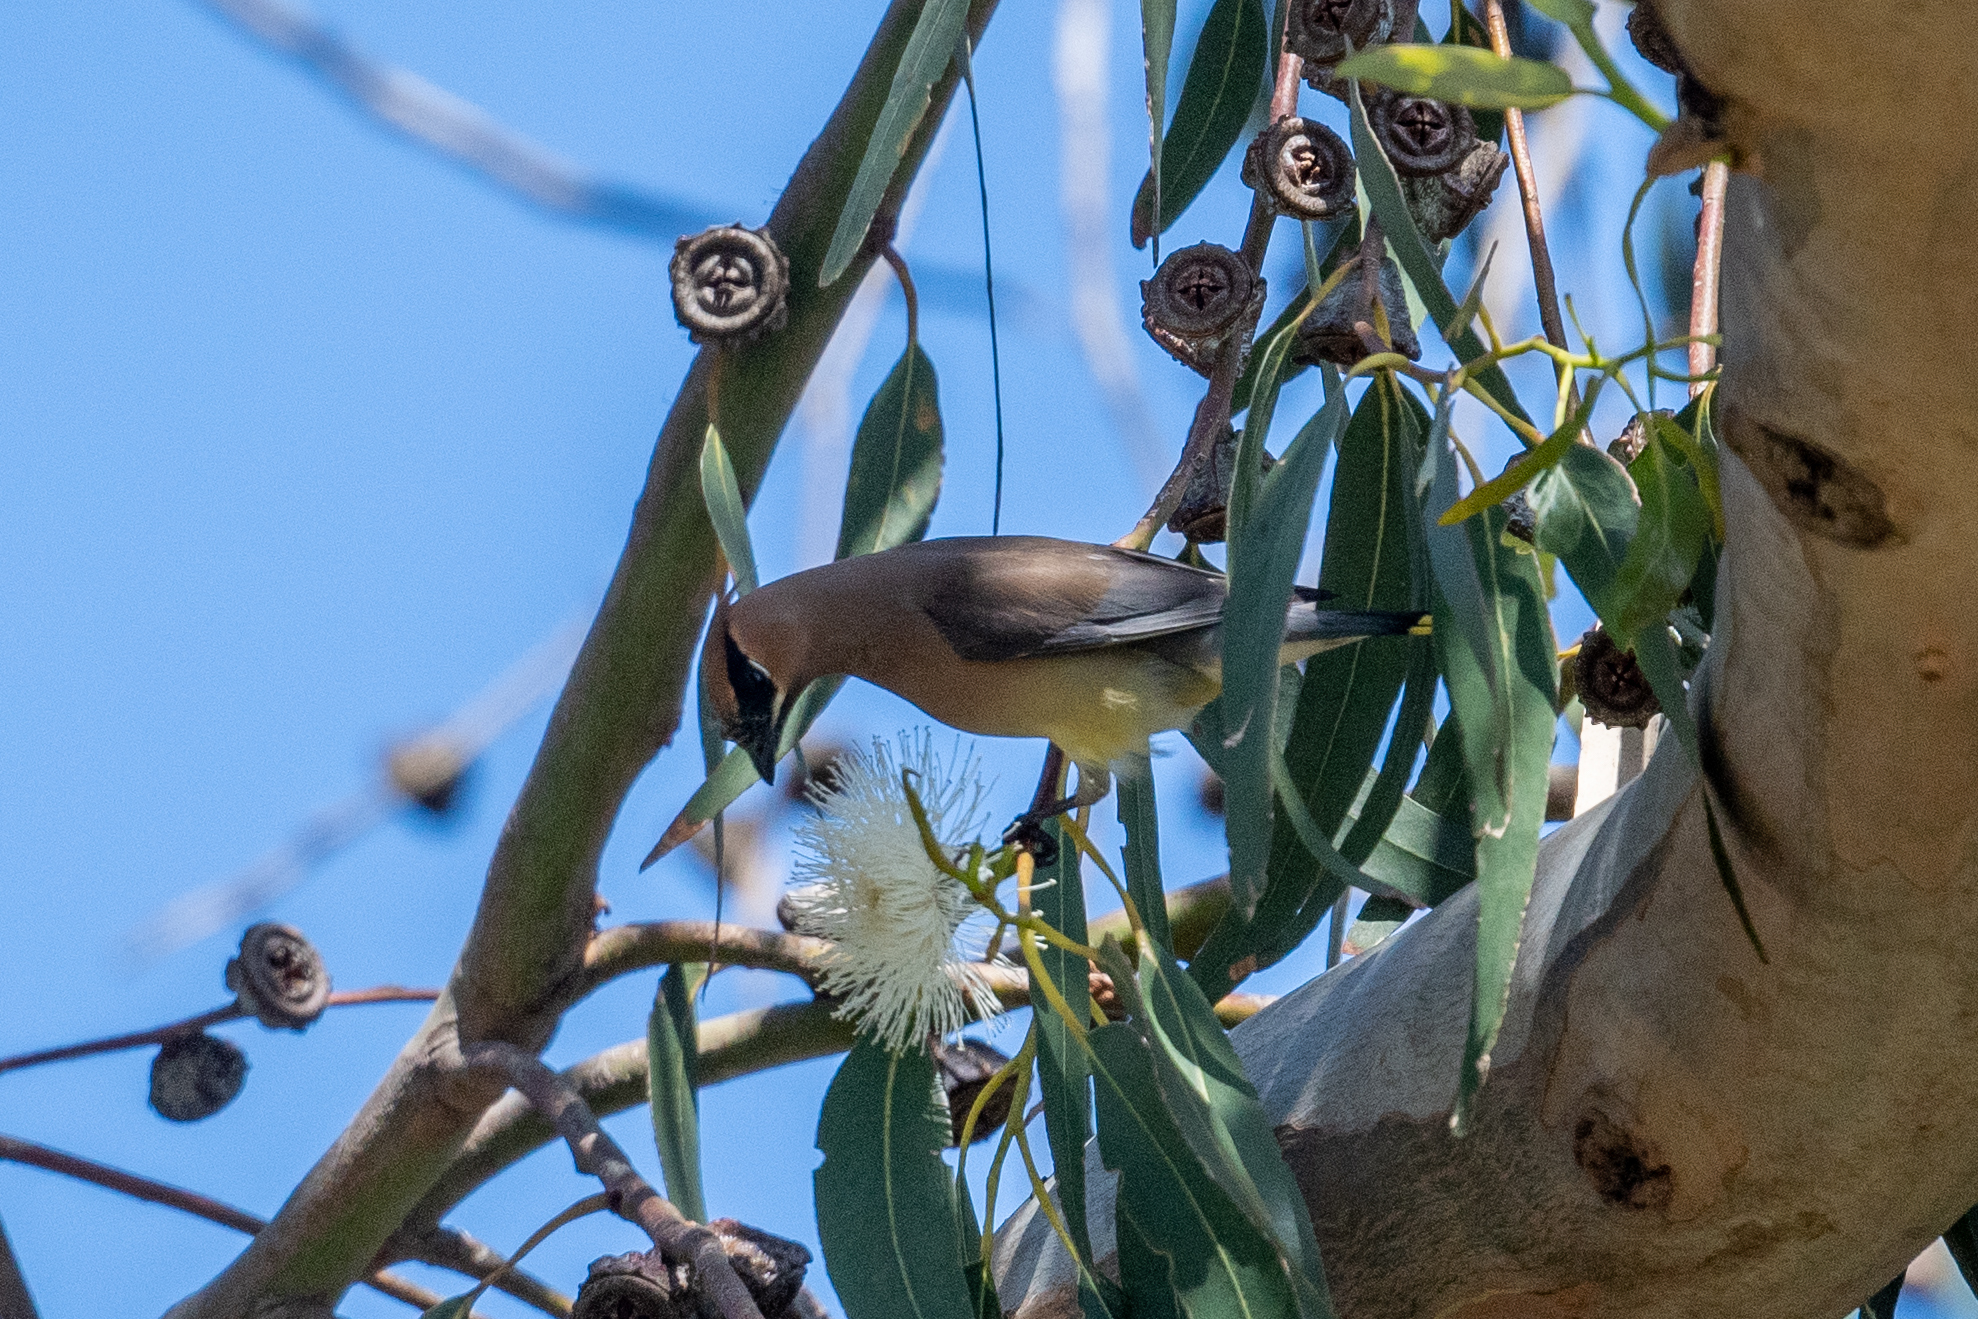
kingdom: Animalia
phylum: Chordata
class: Aves
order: Passeriformes
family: Bombycillidae
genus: Bombycilla
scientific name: Bombycilla cedrorum
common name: Cedar waxwing
